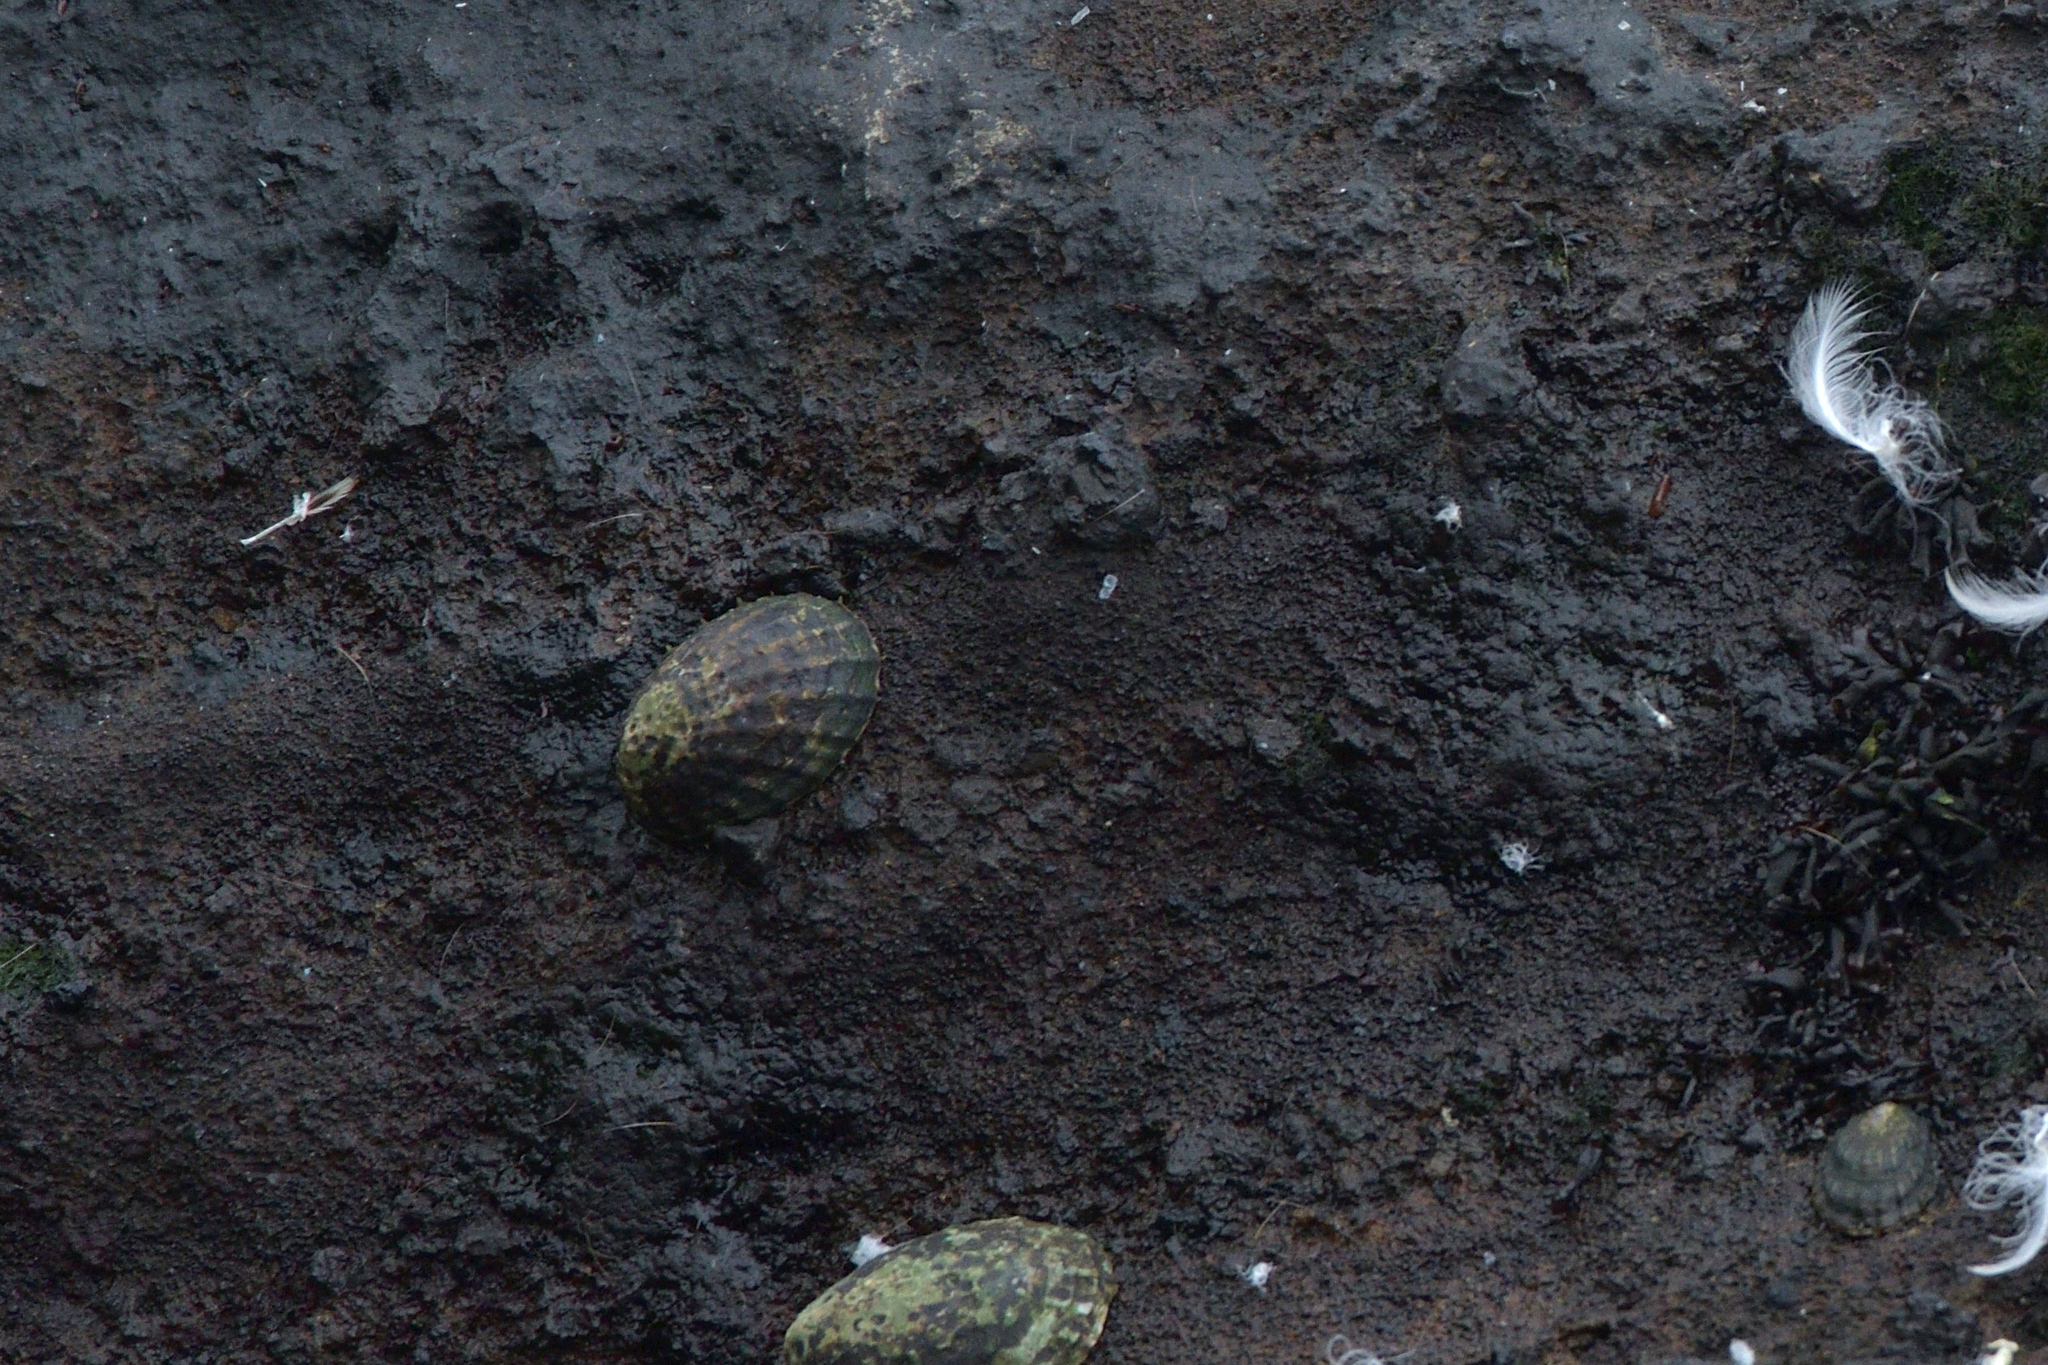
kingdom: Animalia
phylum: Mollusca
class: Gastropoda
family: Nacellidae
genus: Cellana
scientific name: Cellana oliveri
